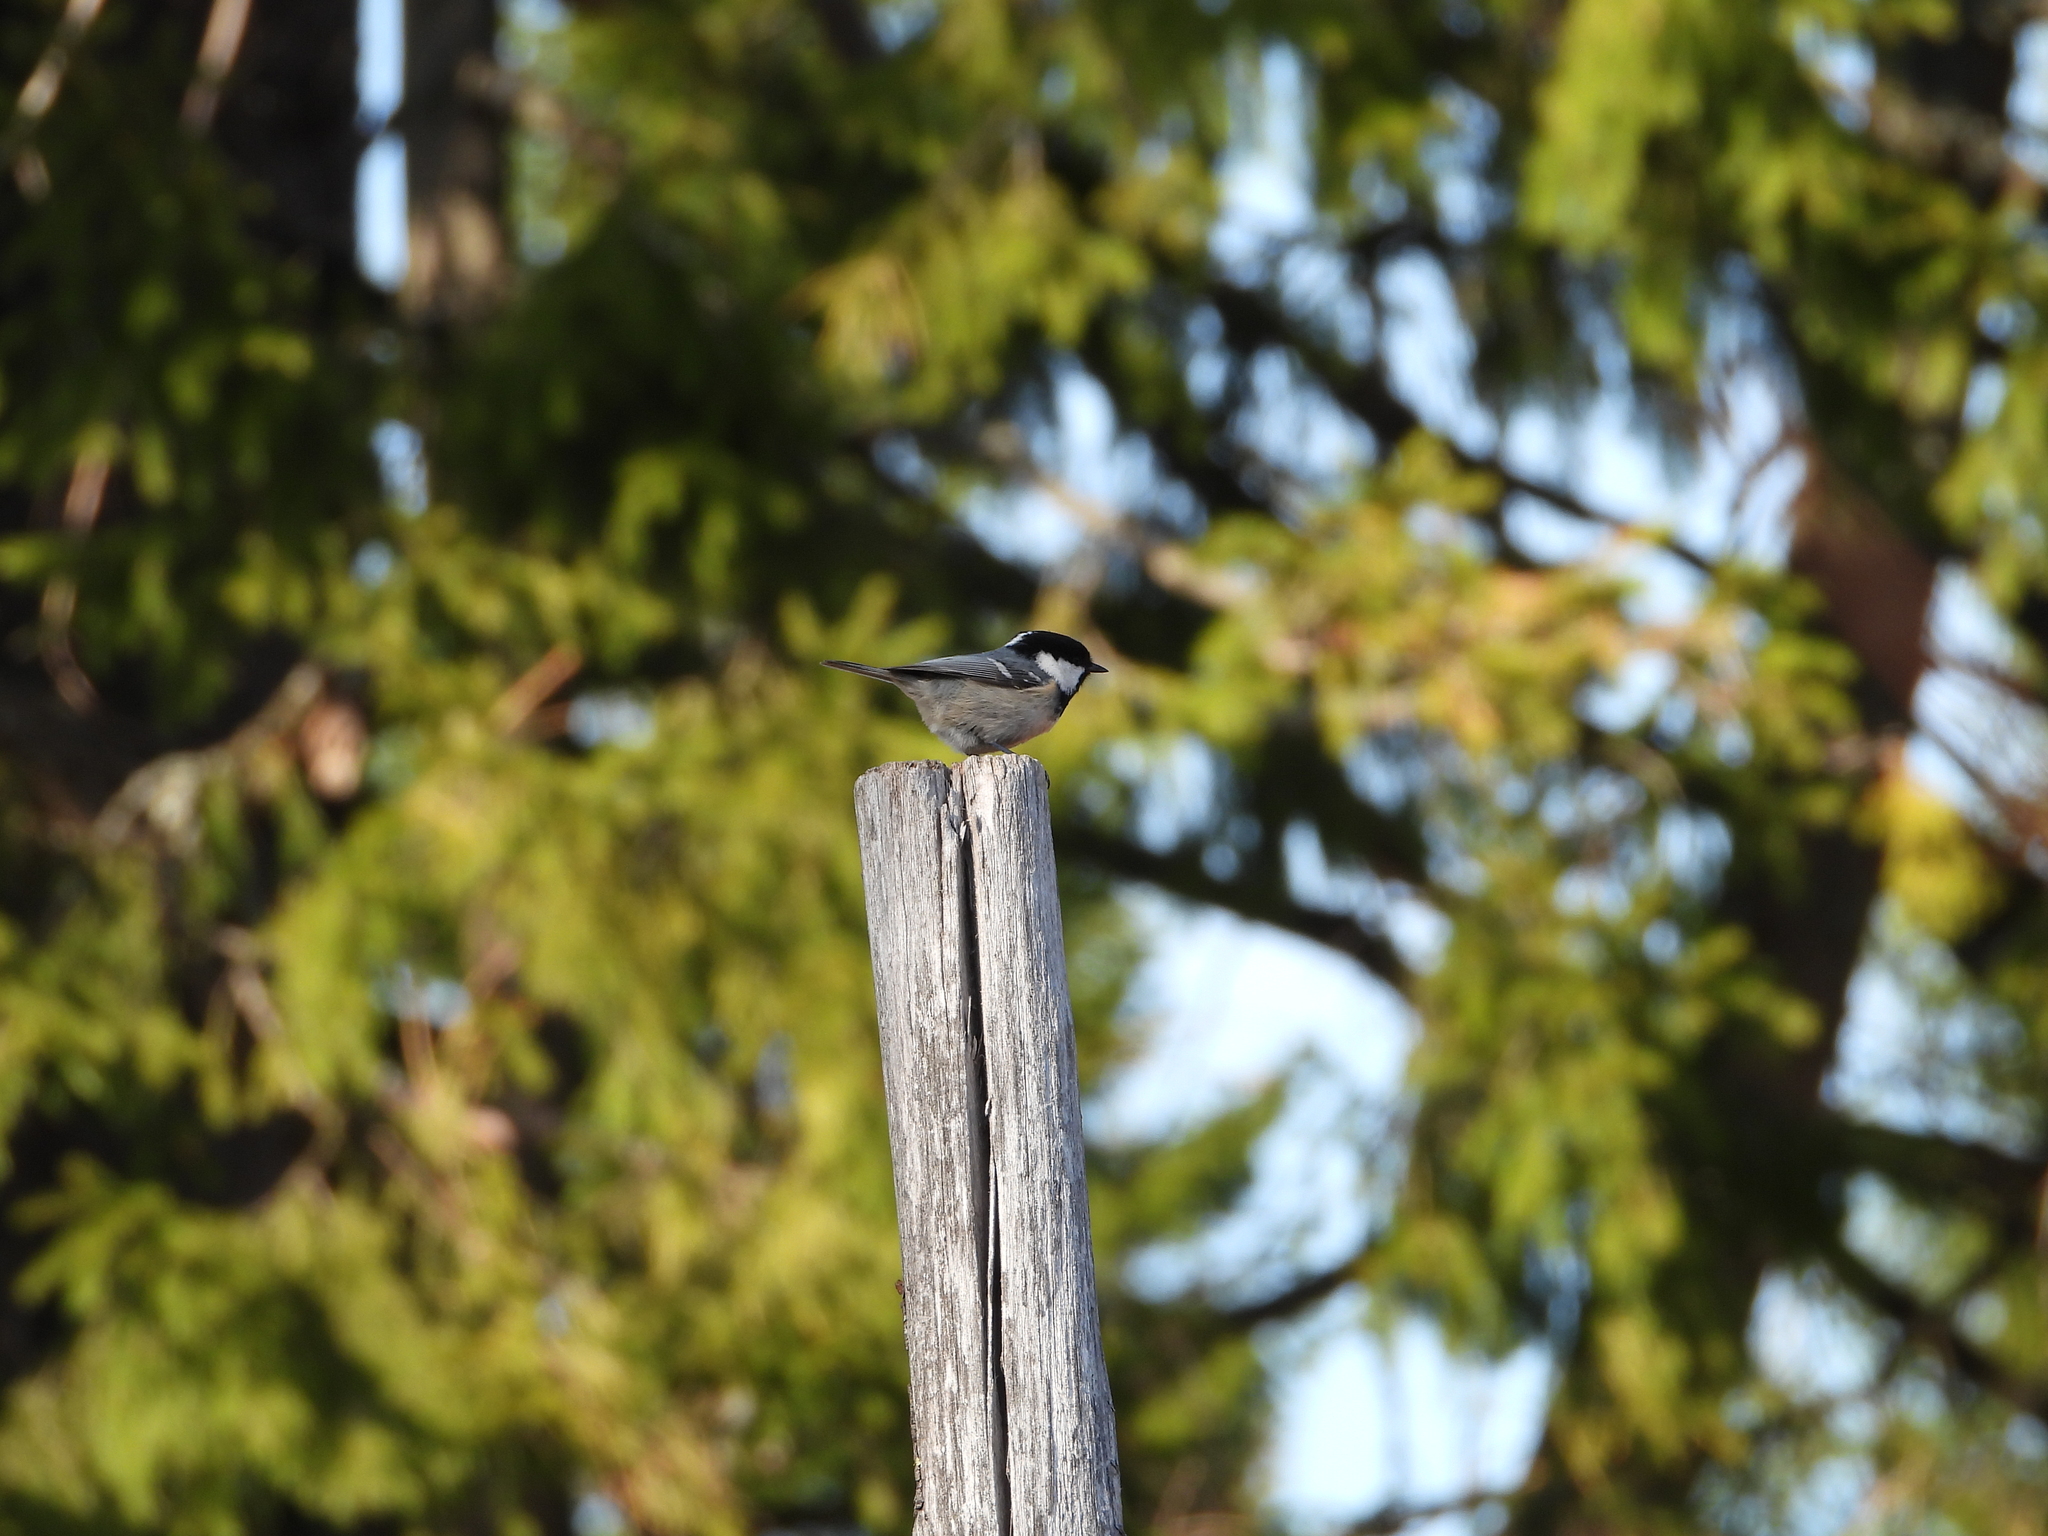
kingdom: Animalia
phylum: Chordata
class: Aves
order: Passeriformes
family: Paridae
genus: Periparus
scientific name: Periparus ater
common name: Coal tit
